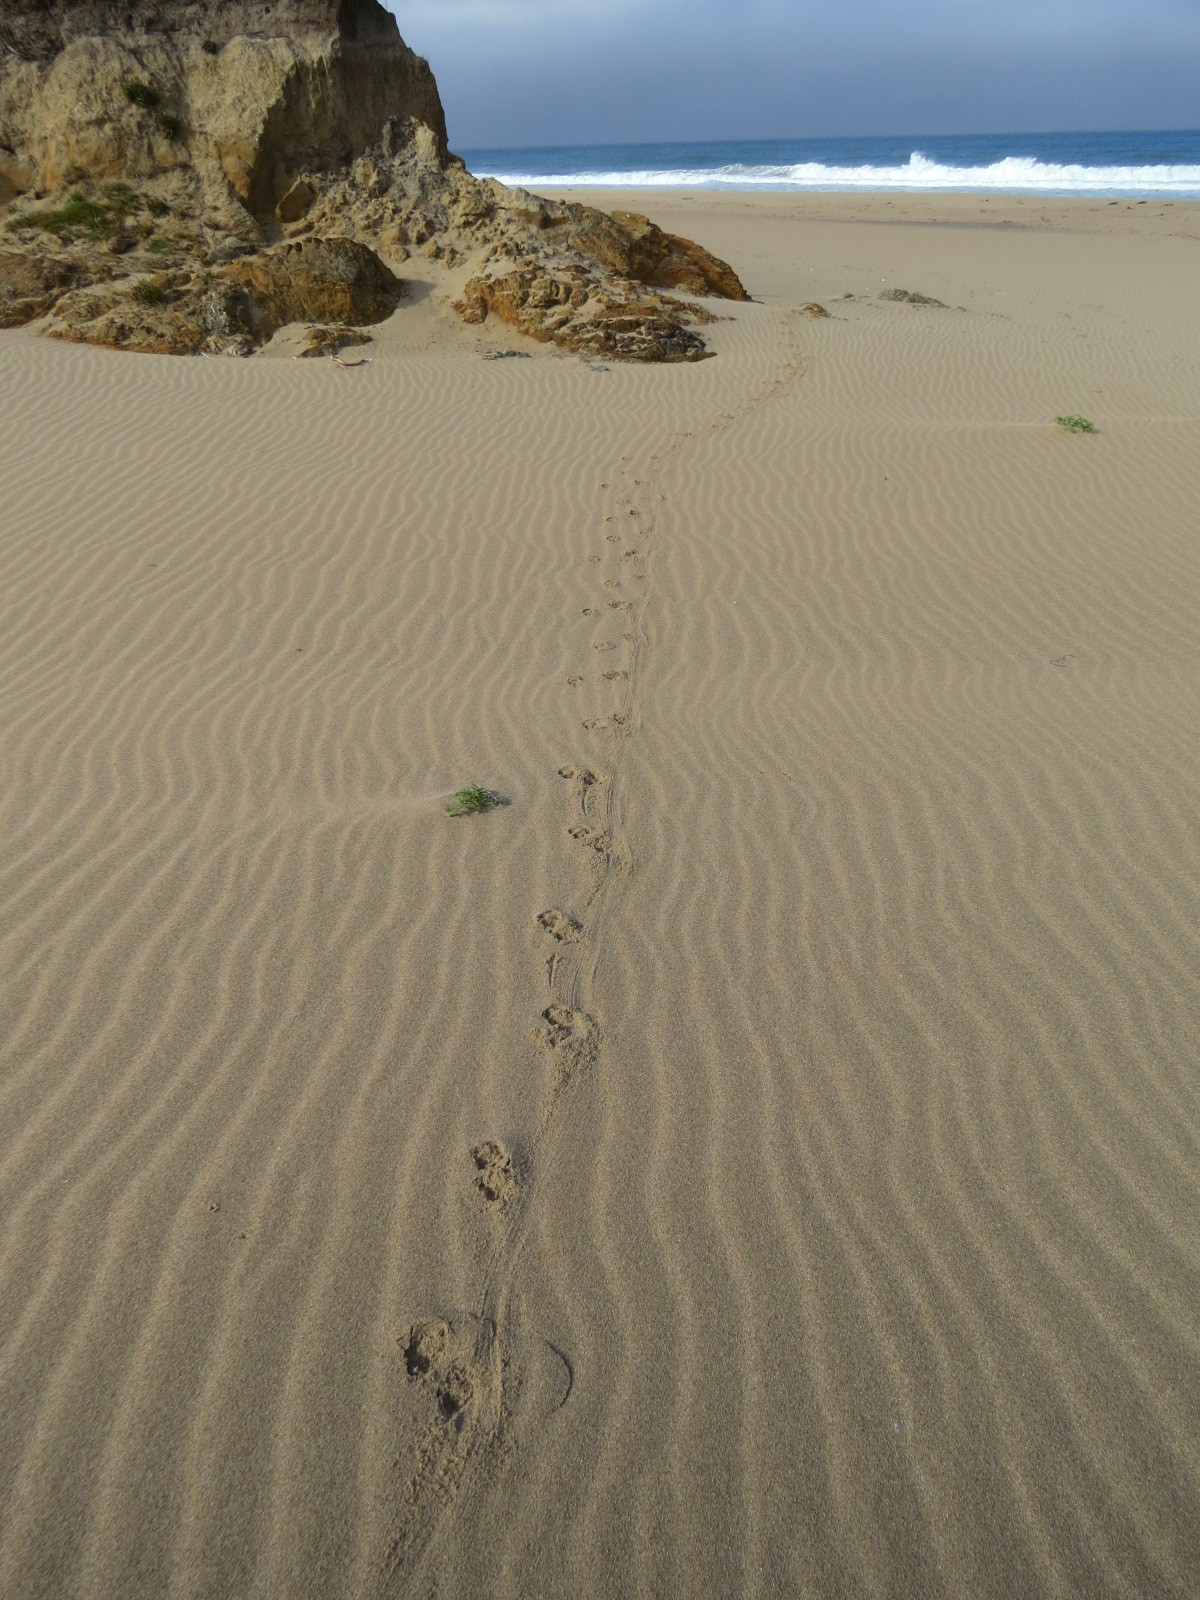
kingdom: Animalia
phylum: Chordata
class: Mammalia
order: Carnivora
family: Canidae
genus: Canis
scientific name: Canis latrans
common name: Coyote
